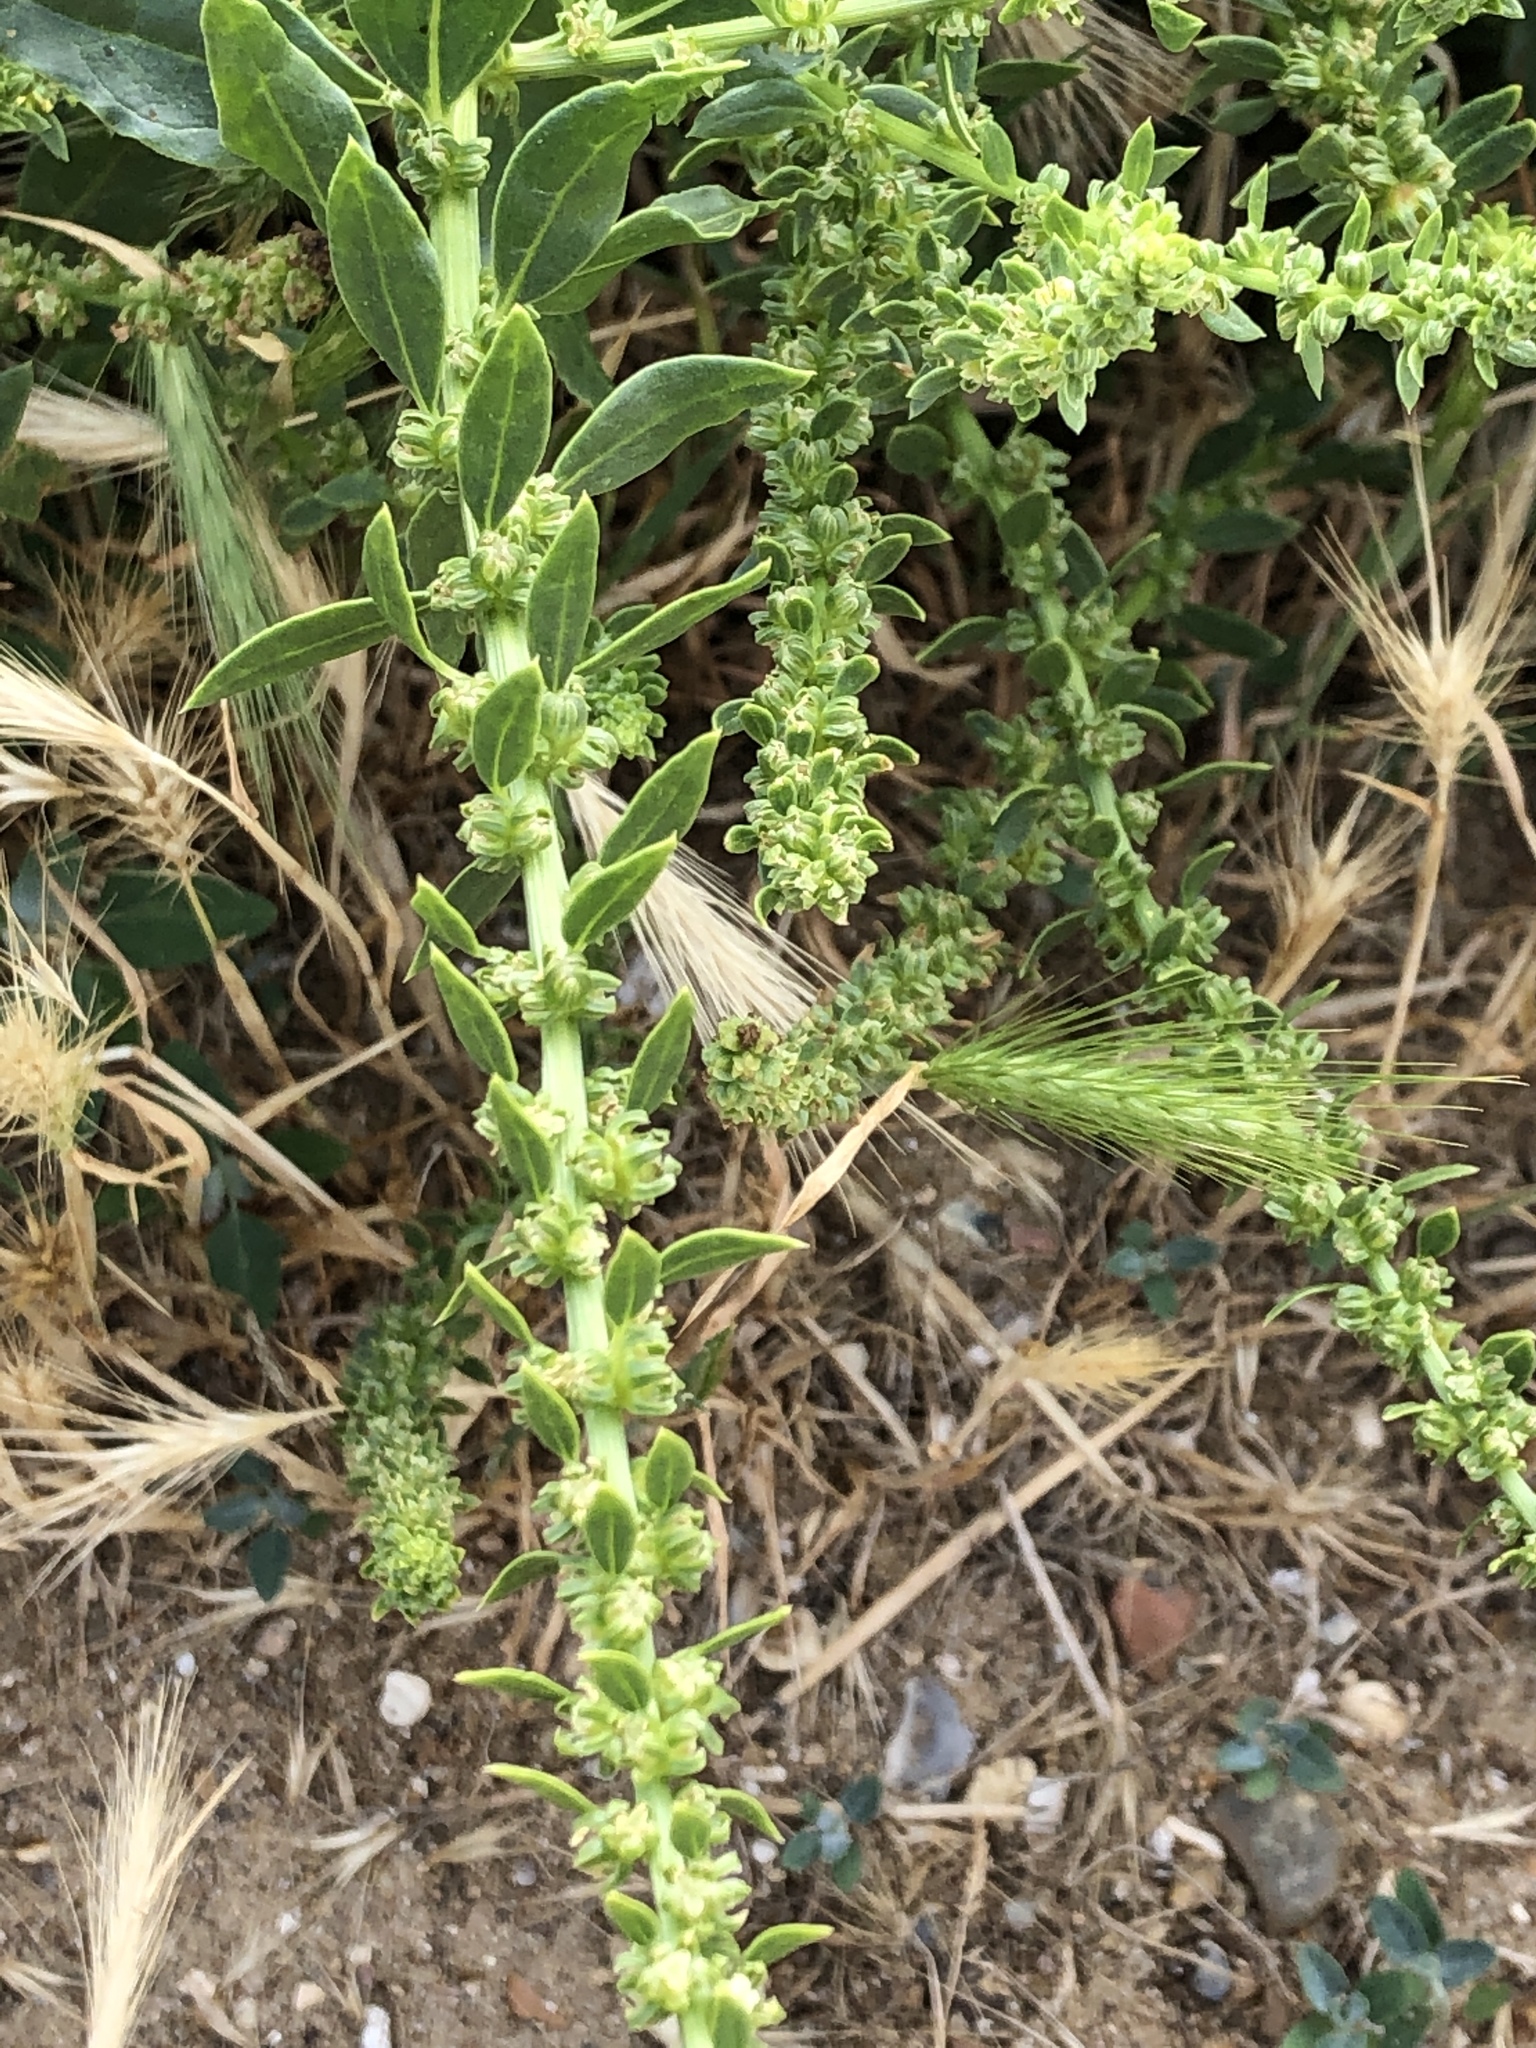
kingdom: Plantae
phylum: Tracheophyta
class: Magnoliopsida
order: Caryophyllales
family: Amaranthaceae
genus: Beta
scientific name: Beta vulgaris
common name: Beet
